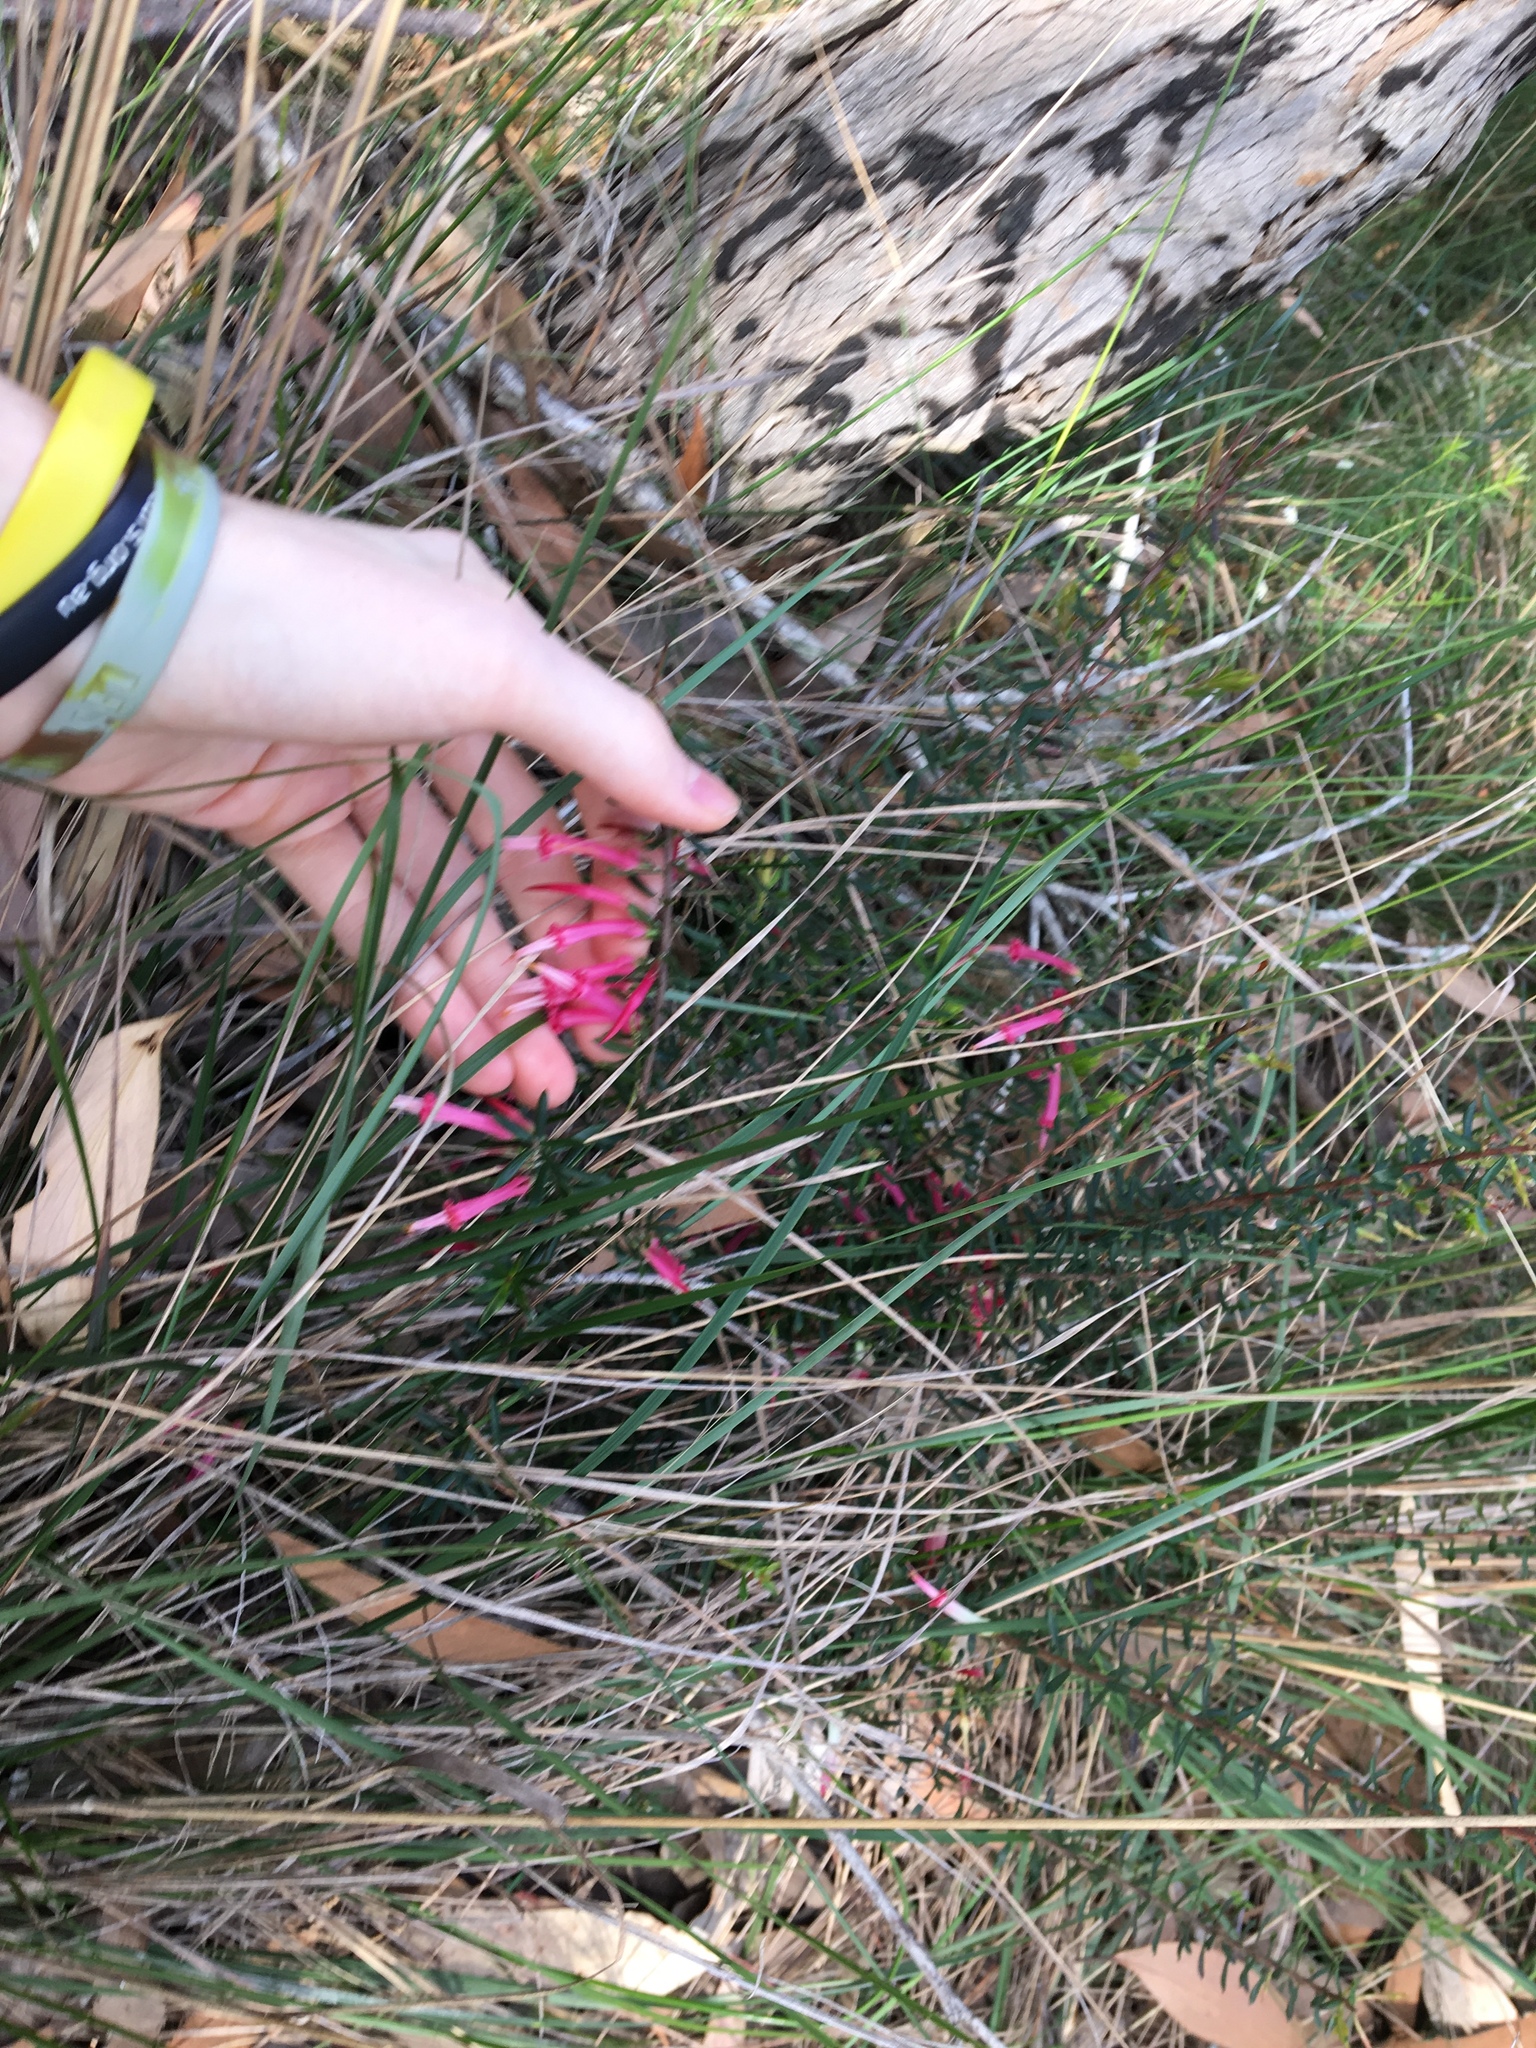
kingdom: Plantae
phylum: Tracheophyta
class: Magnoliopsida
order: Ericales
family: Ericaceae
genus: Styphelia
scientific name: Styphelia tubiflora
